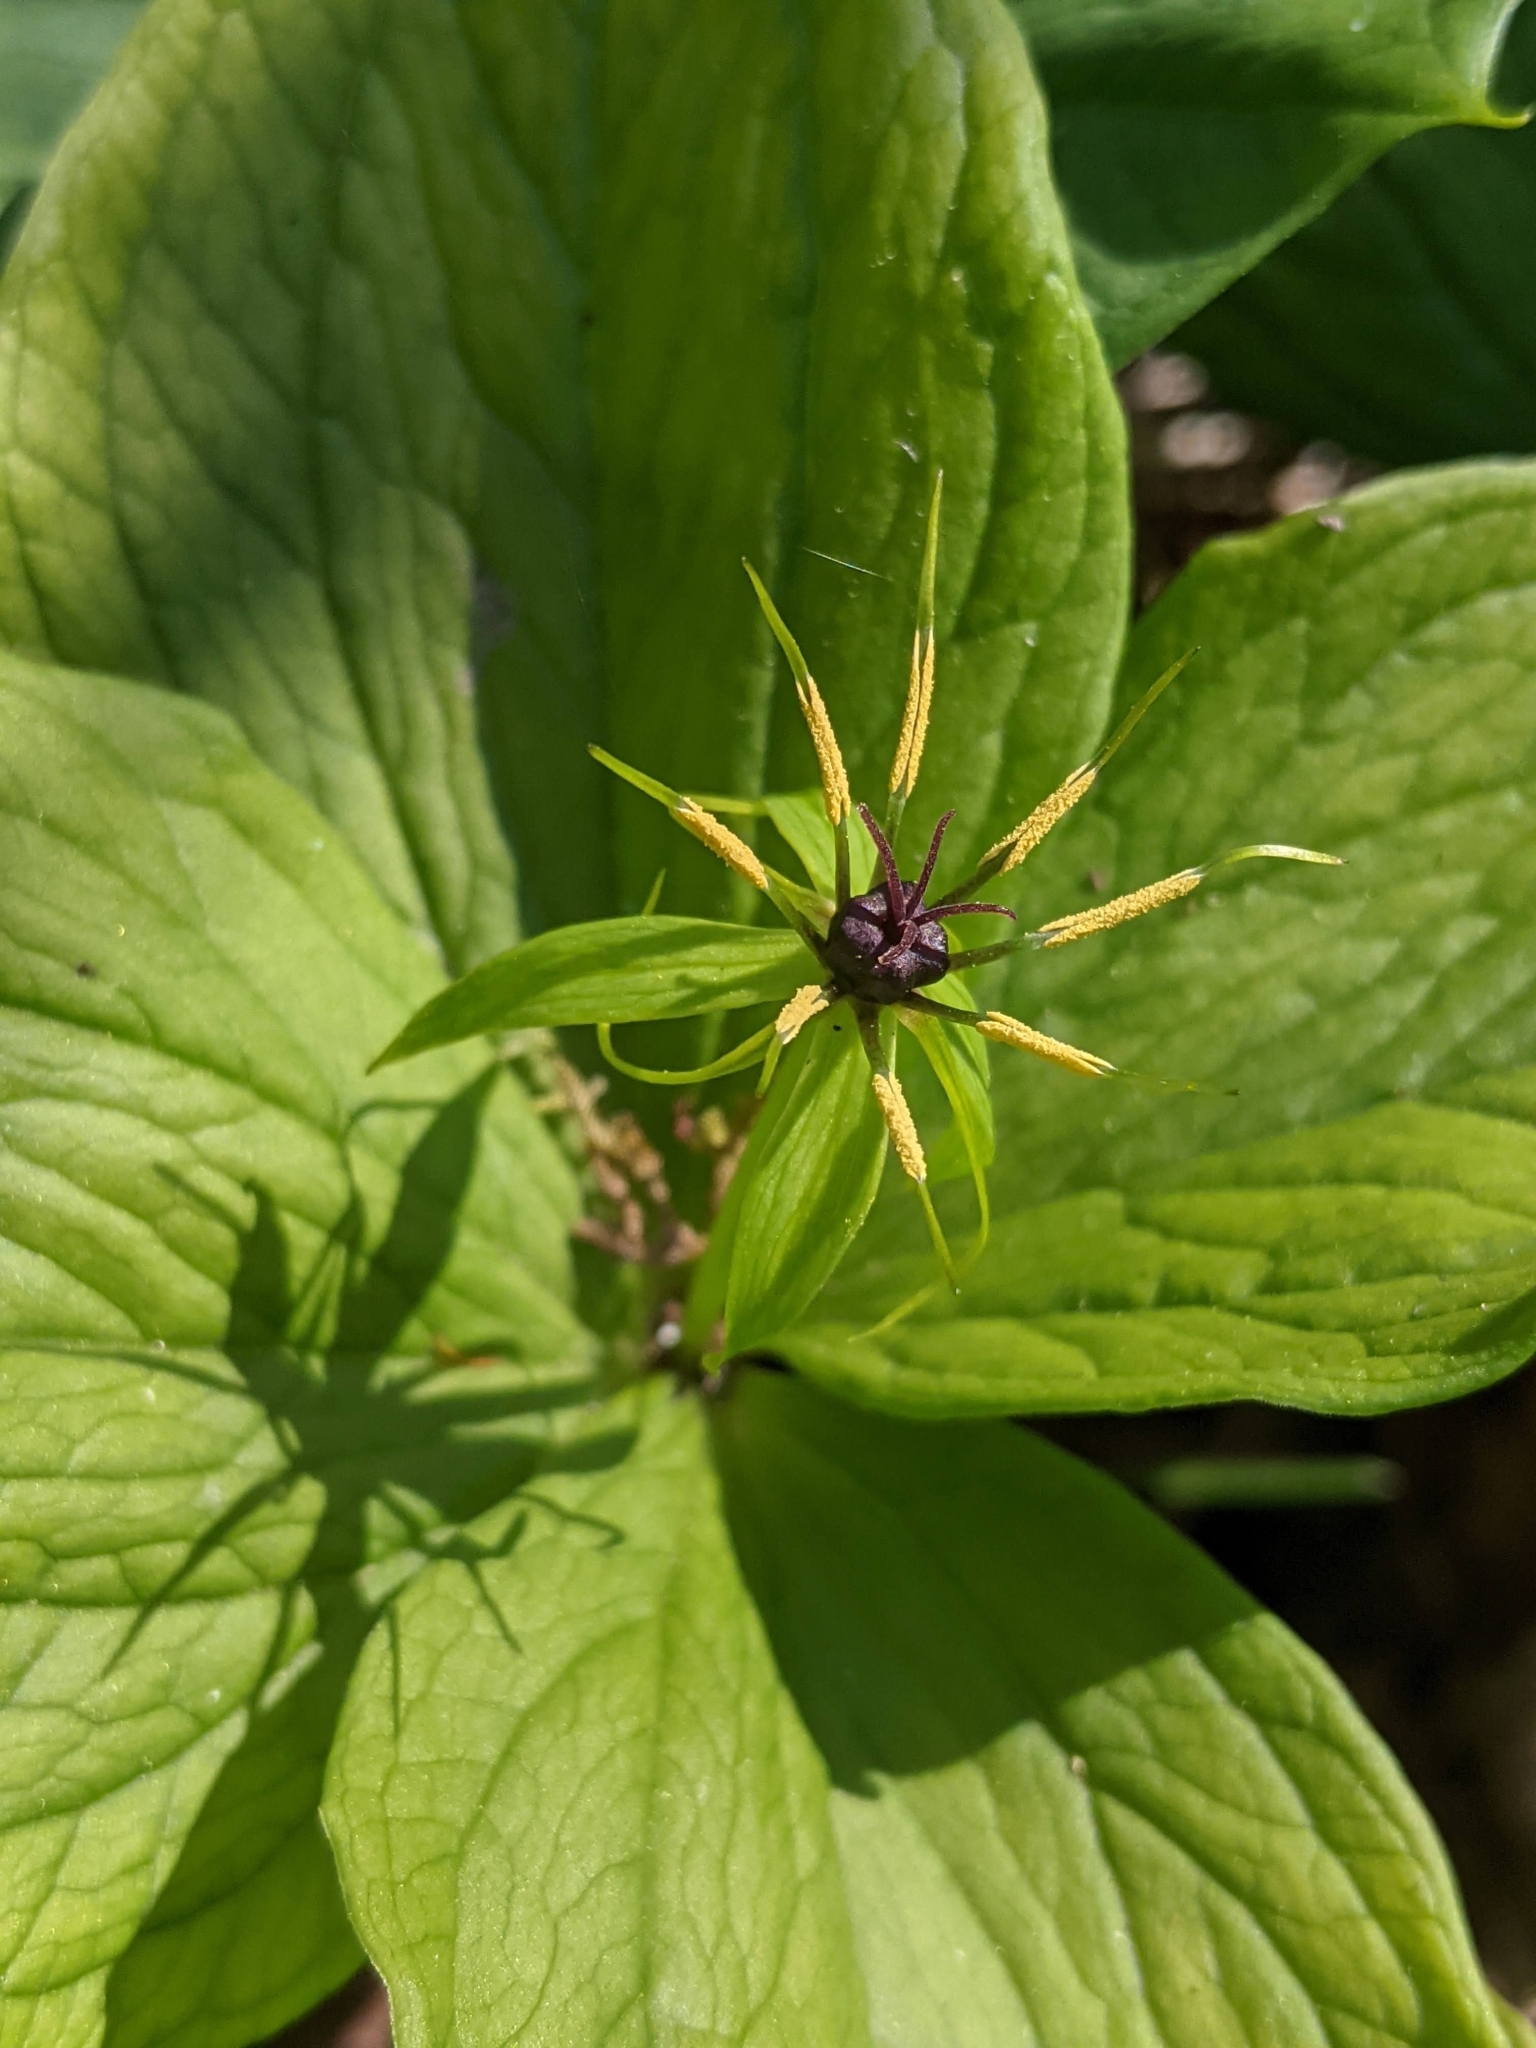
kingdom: Plantae
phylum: Tracheophyta
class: Liliopsida
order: Liliales
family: Melanthiaceae
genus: Paris
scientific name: Paris quadrifolia
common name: Herb-paris
